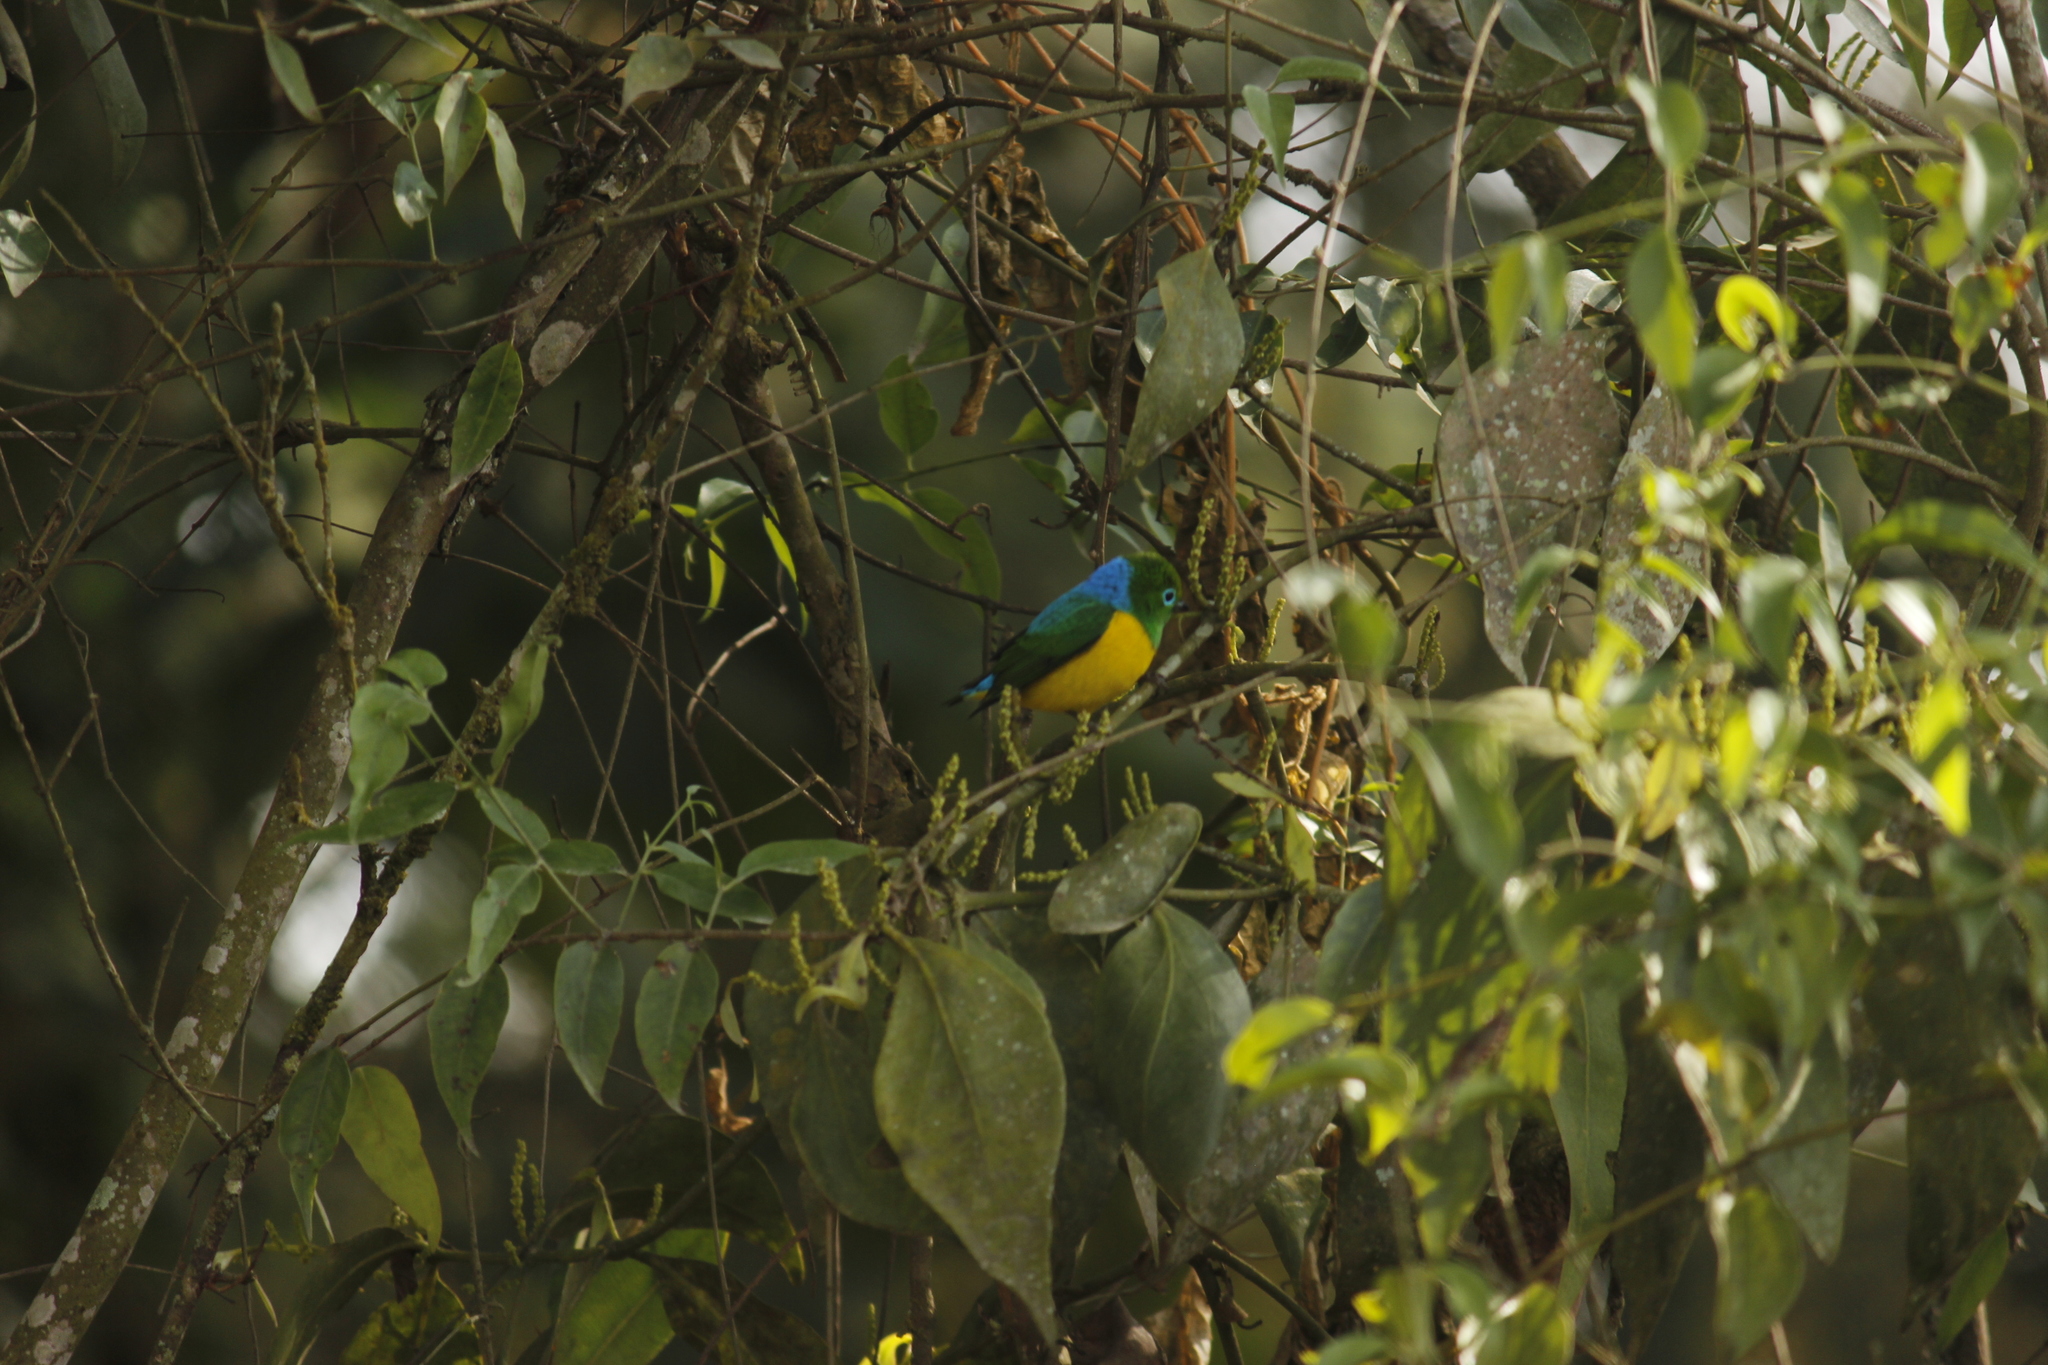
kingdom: Animalia
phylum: Chordata
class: Aves
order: Passeriformes
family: Fringillidae
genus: Chlorophonia
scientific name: Chlorophonia cyanea
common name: Blue-naped chlorophonia
